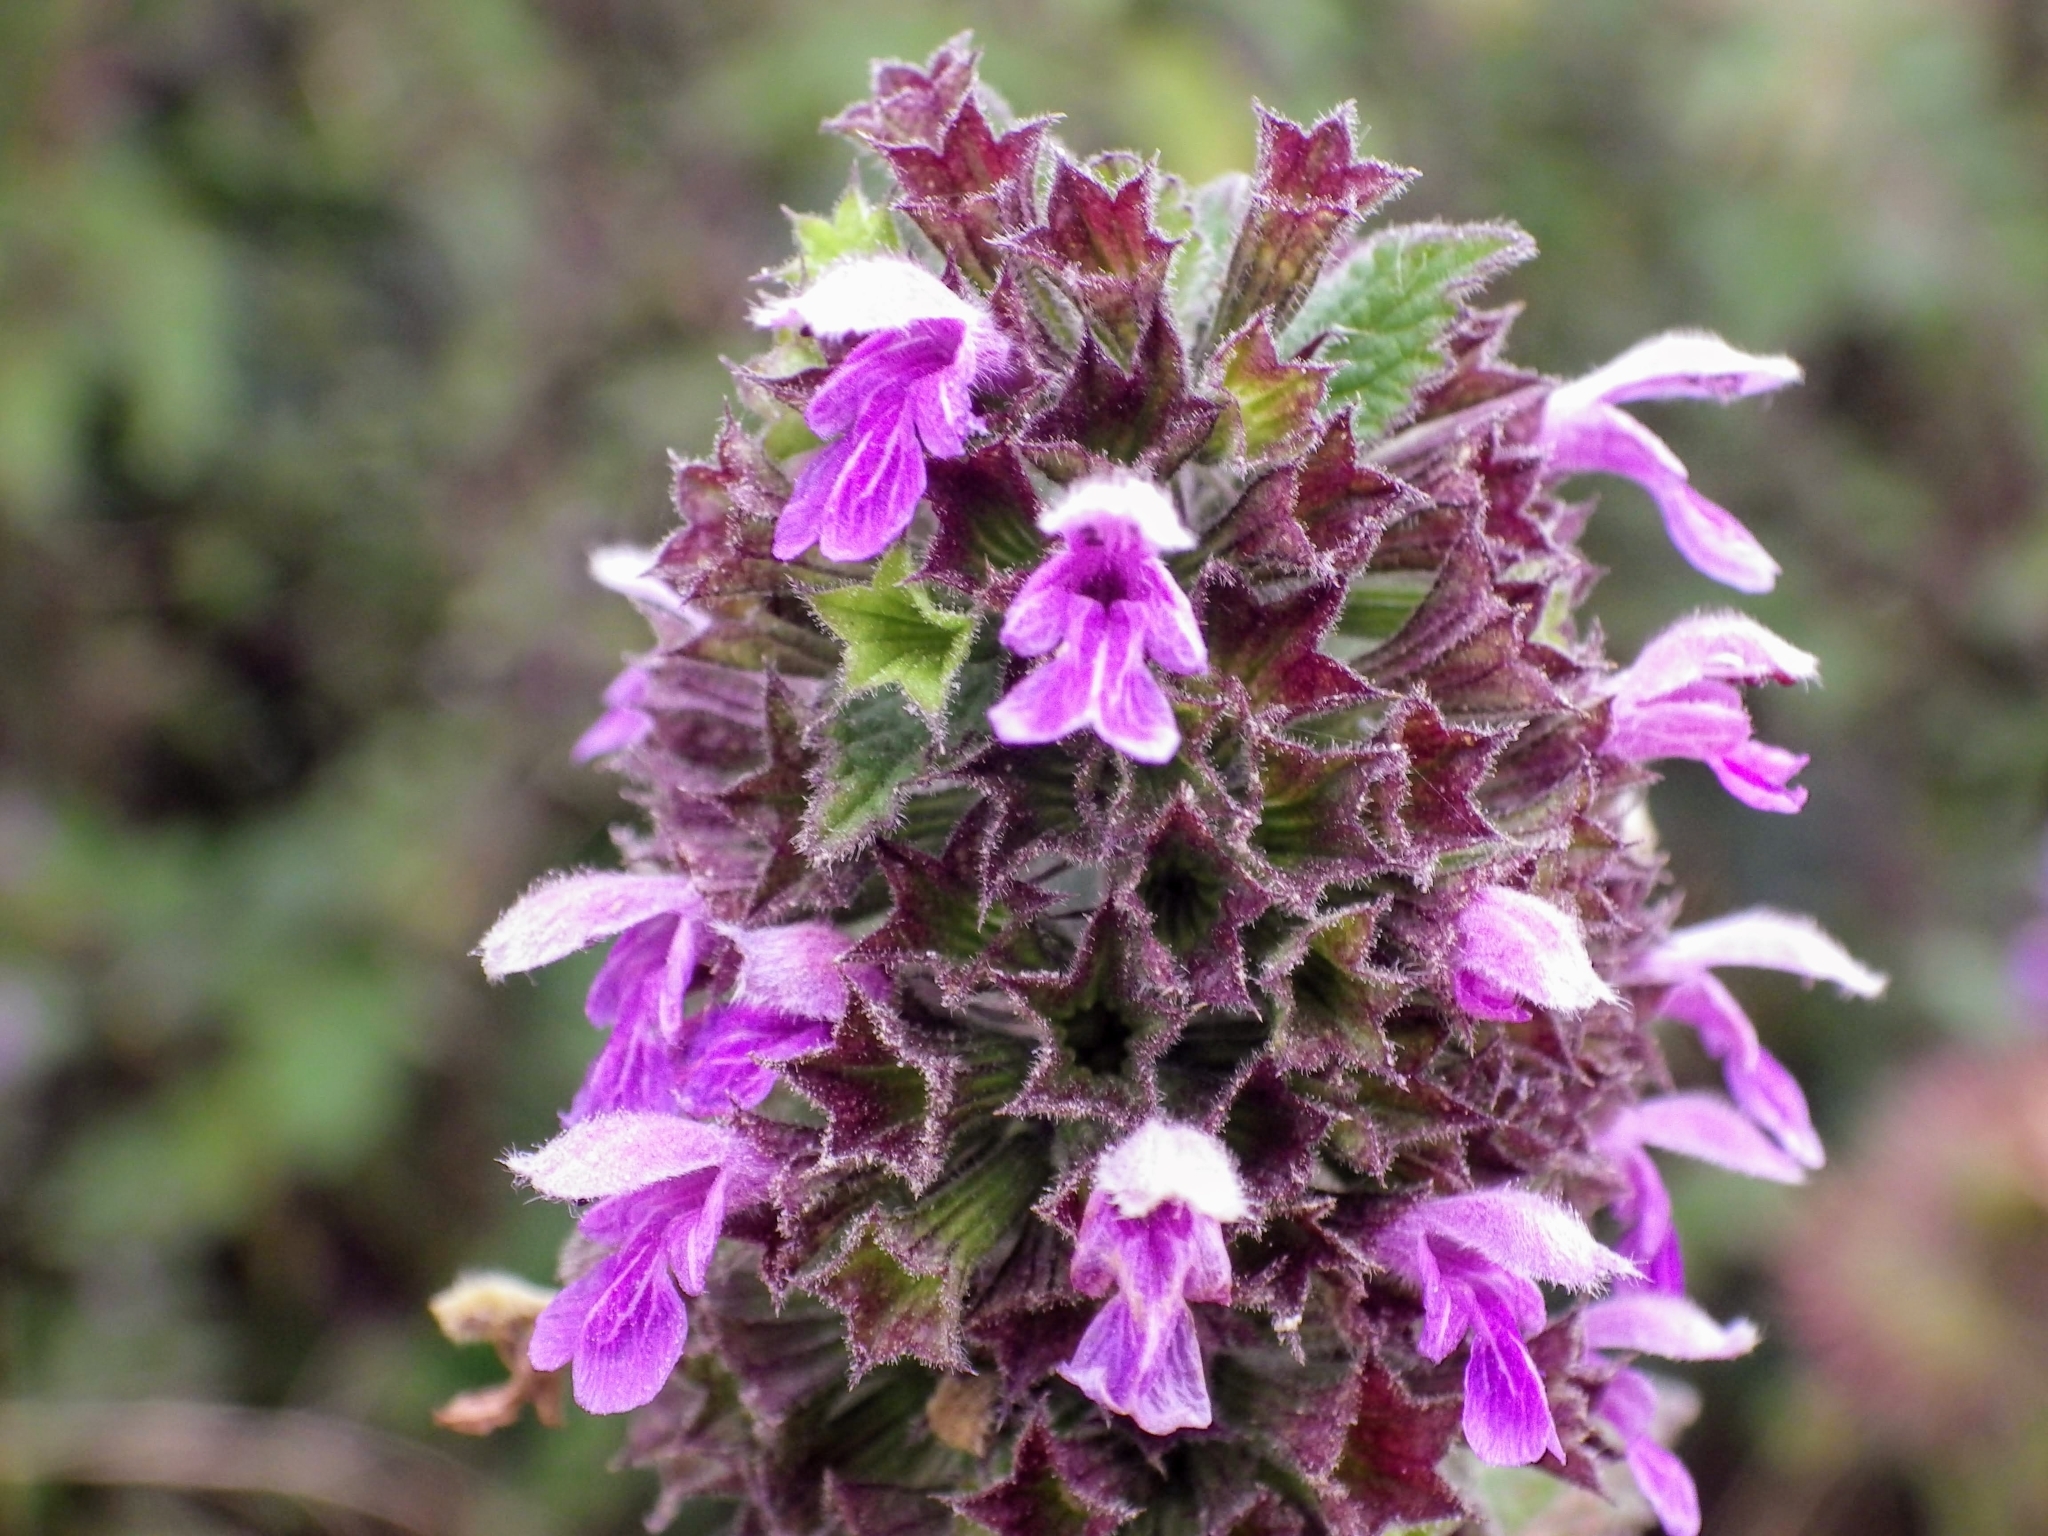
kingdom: Plantae
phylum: Tracheophyta
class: Magnoliopsida
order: Lamiales
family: Lamiaceae
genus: Ballota
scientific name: Ballota nigra
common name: Black horehound
